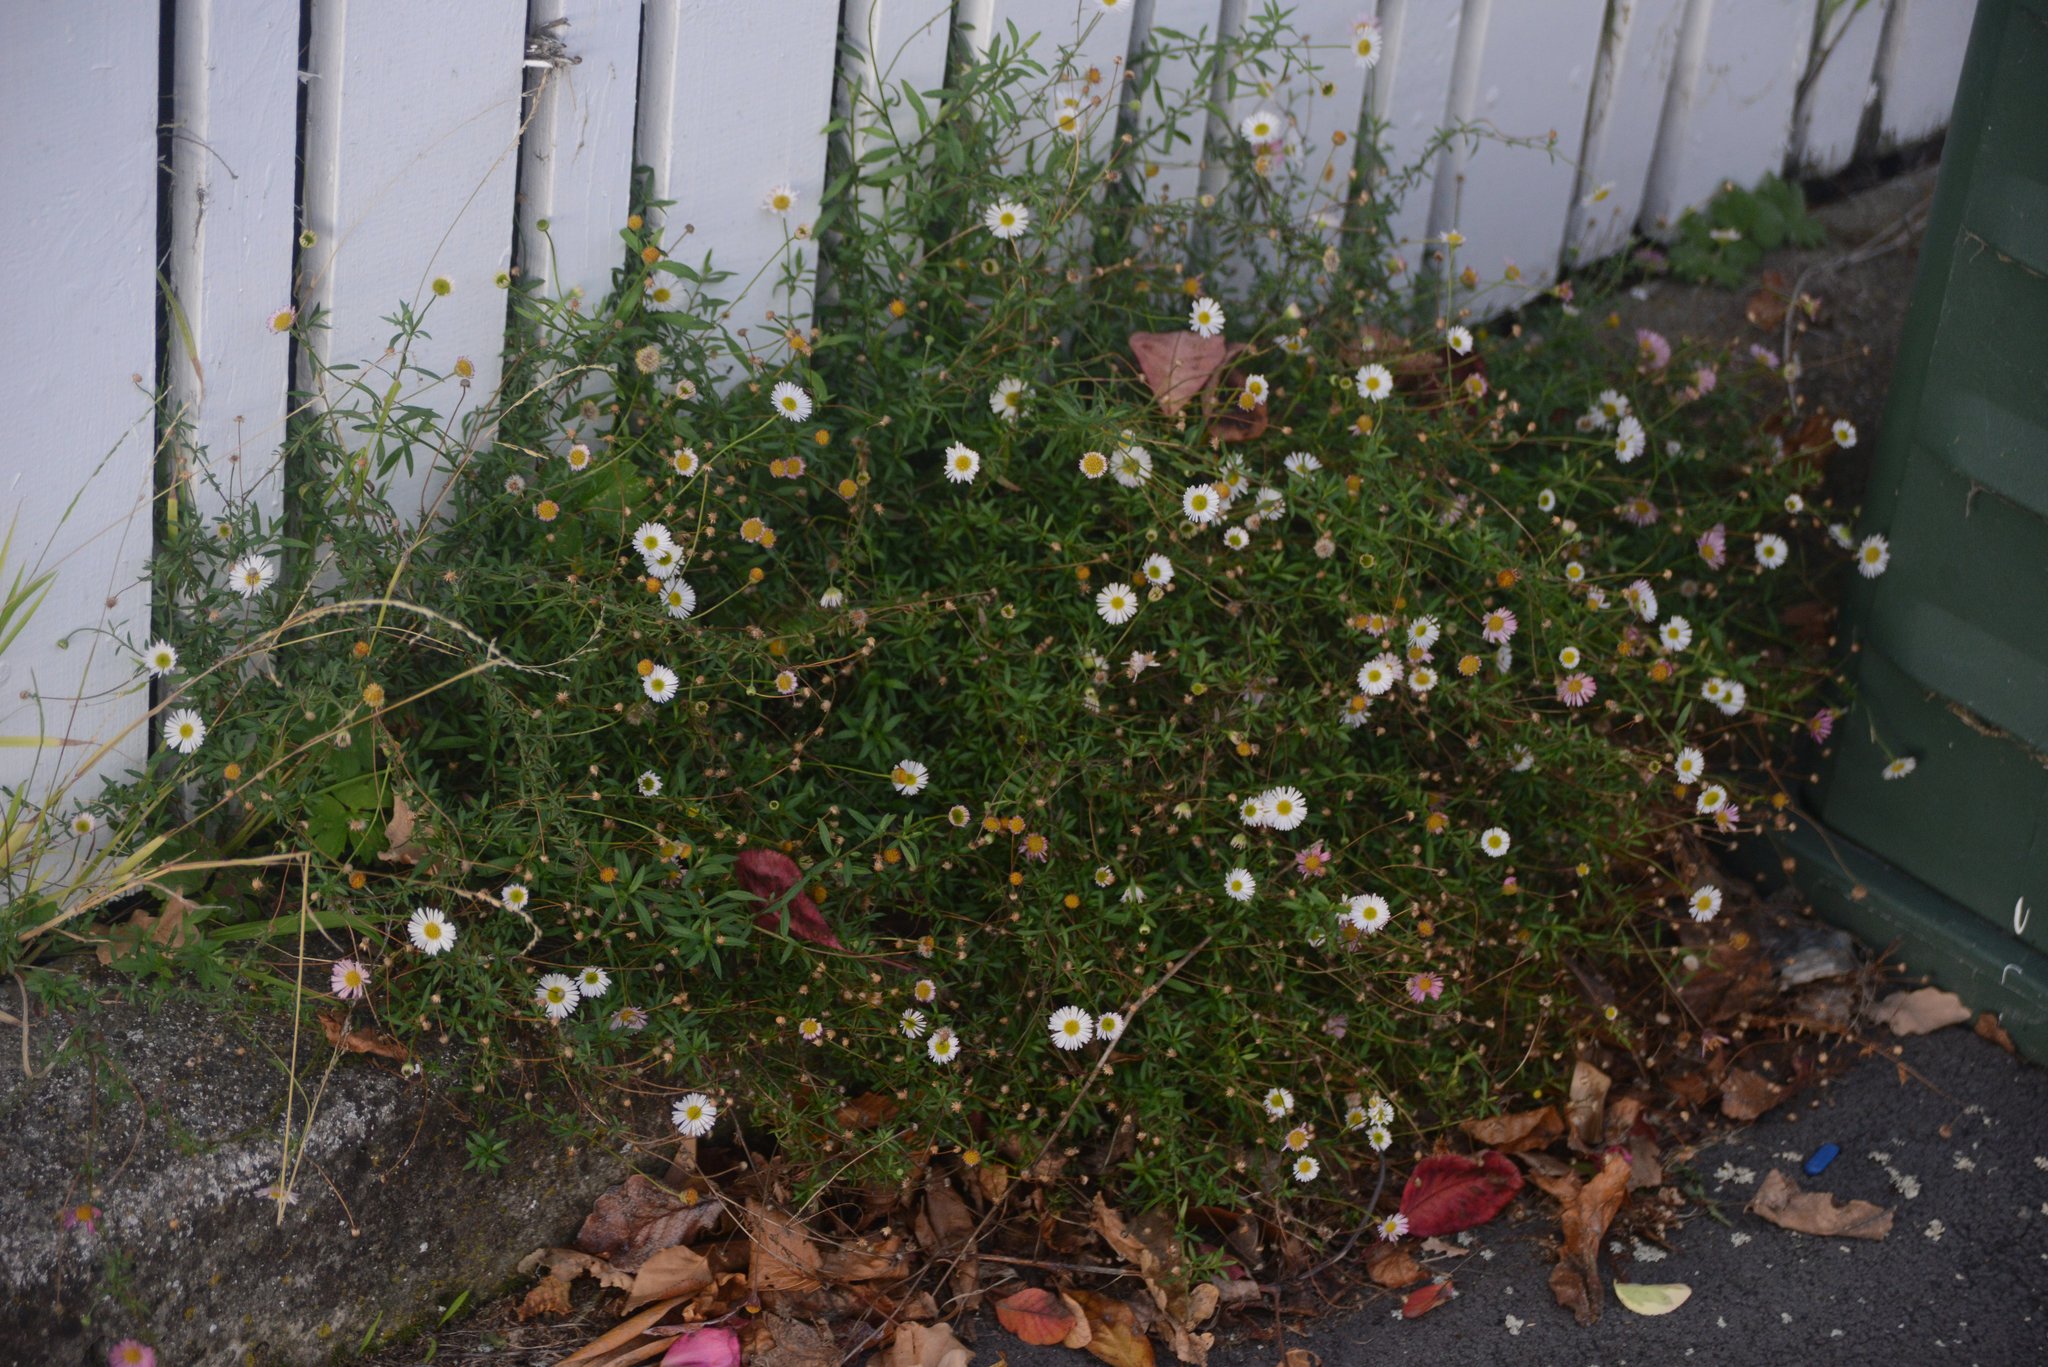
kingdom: Plantae
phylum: Tracheophyta
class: Magnoliopsida
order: Asterales
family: Asteraceae
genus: Erigeron
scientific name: Erigeron karvinskianus
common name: Mexican fleabane
